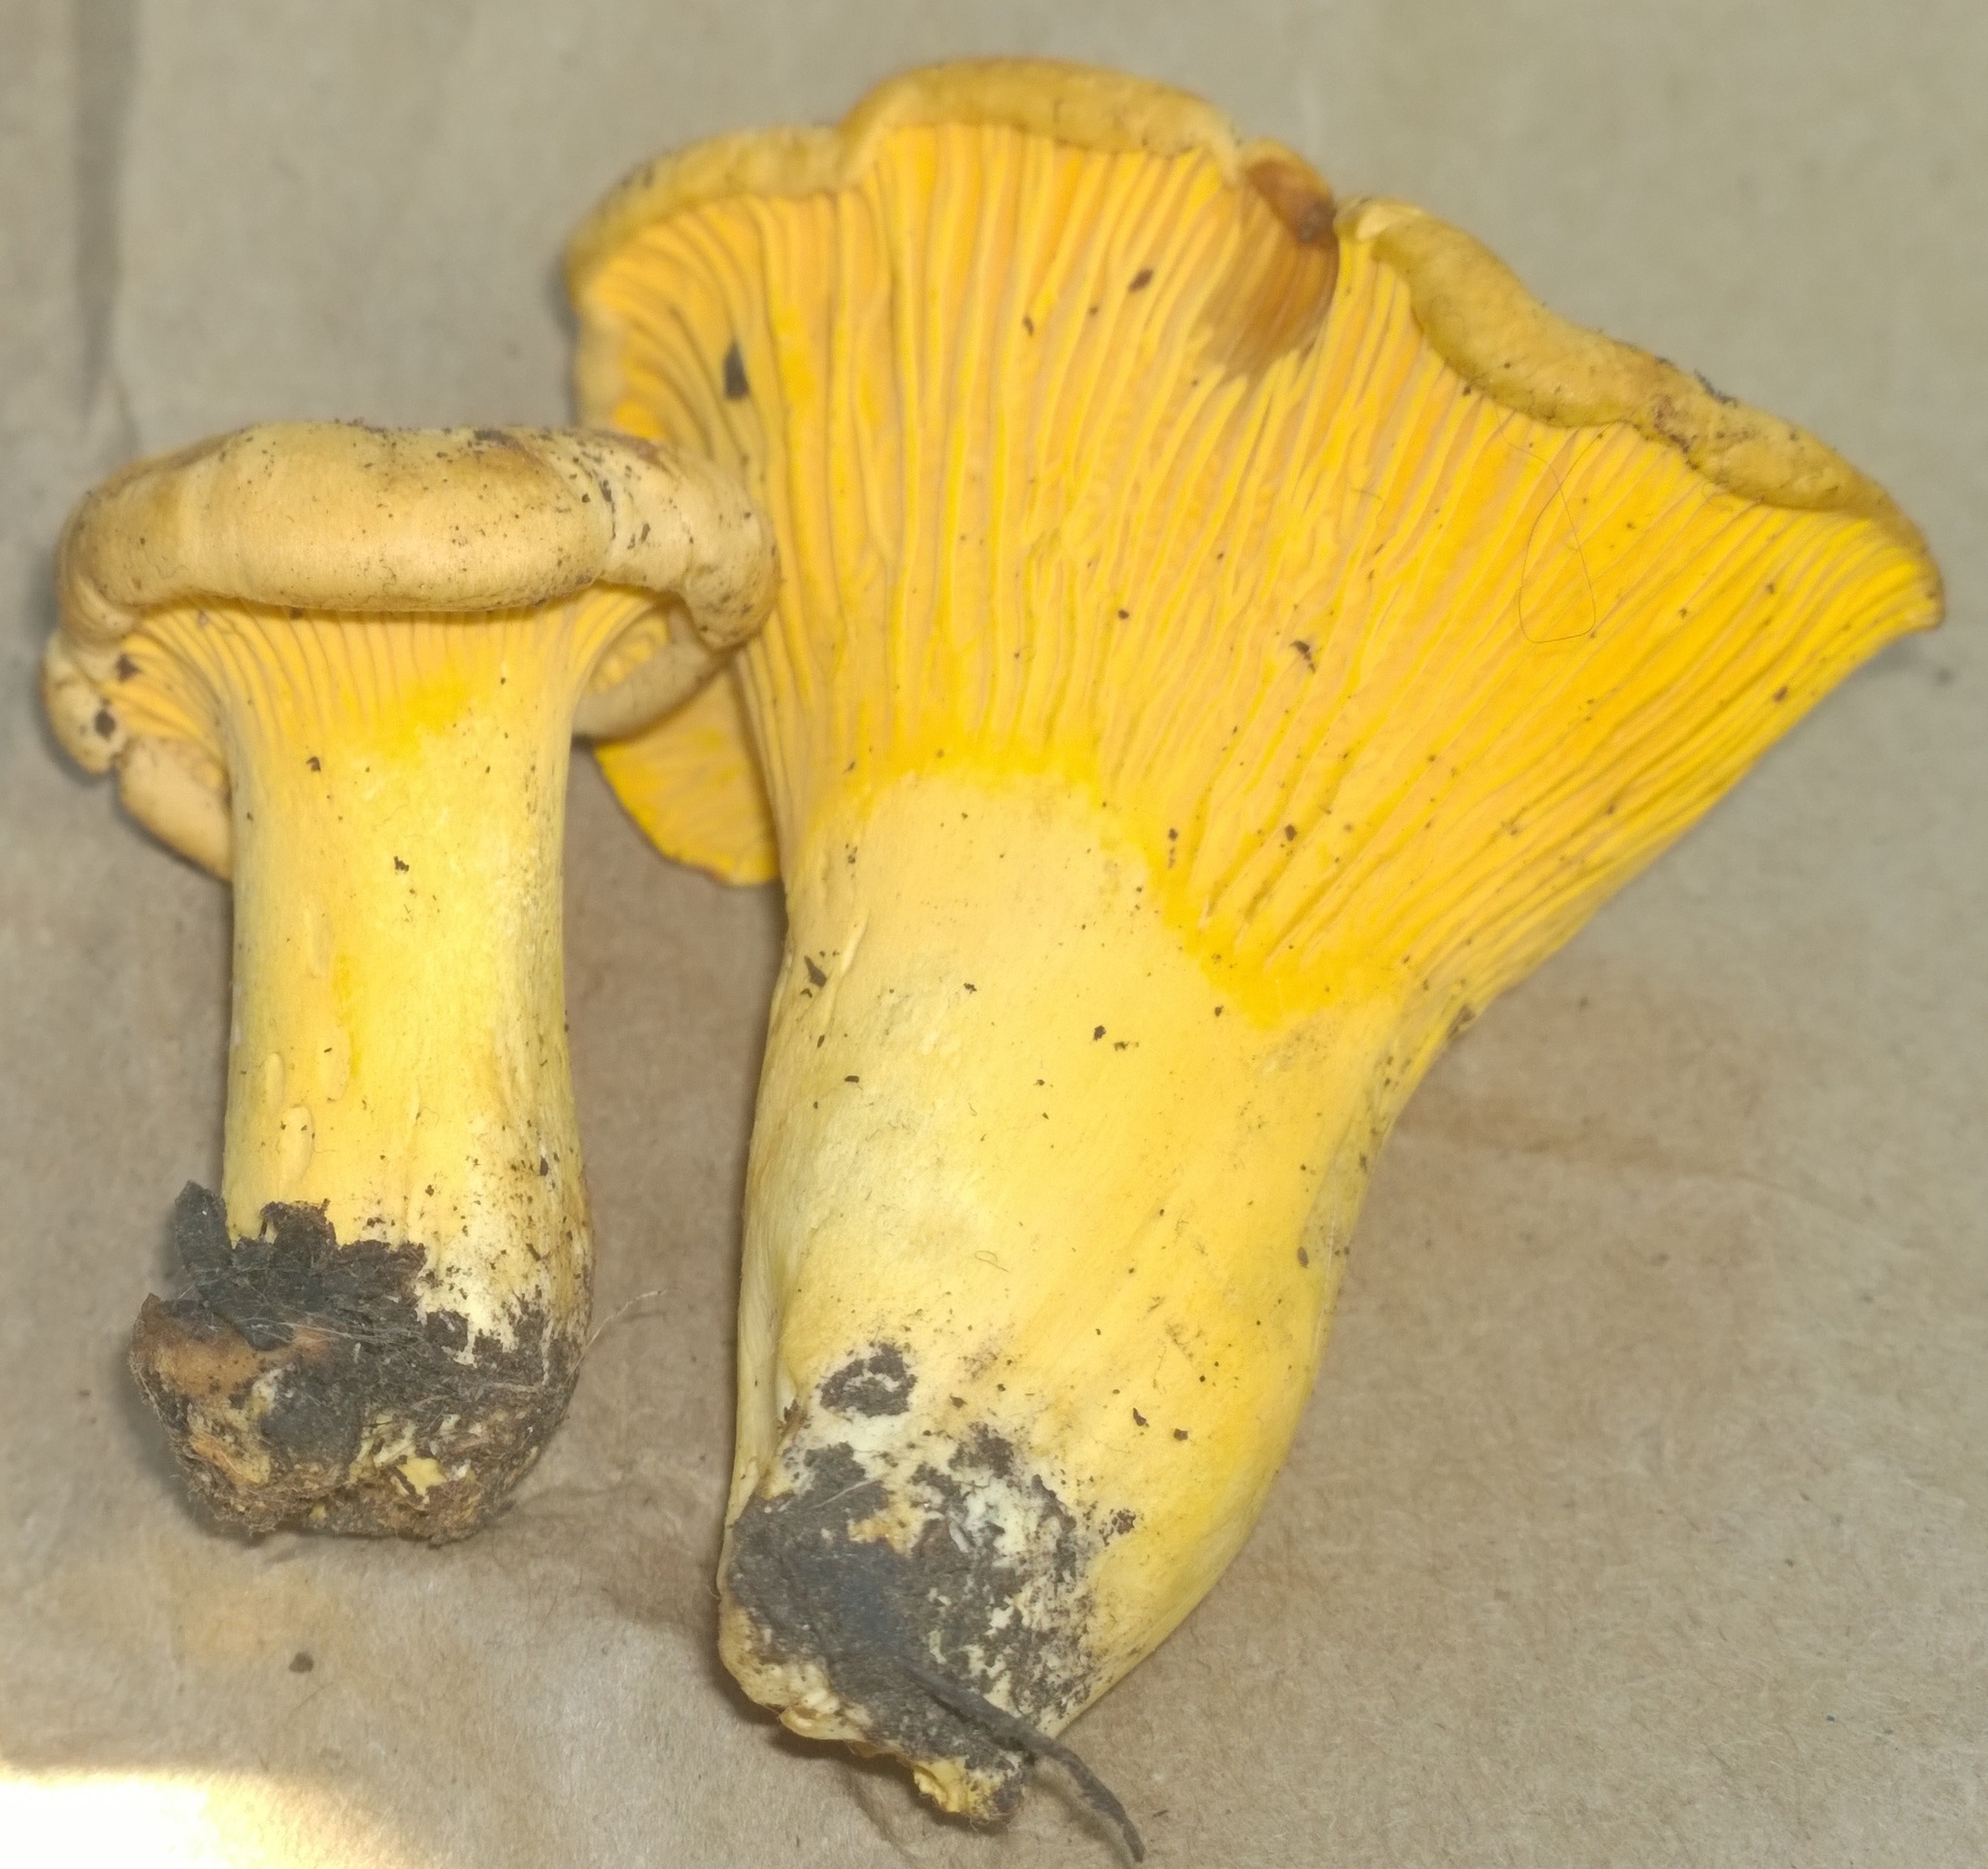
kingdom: Fungi
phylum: Basidiomycota
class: Agaricomycetes
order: Cantharellales
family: Hydnaceae
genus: Cantharellus
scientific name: Cantharellus roseocanus
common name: Rainbow chanterelle
